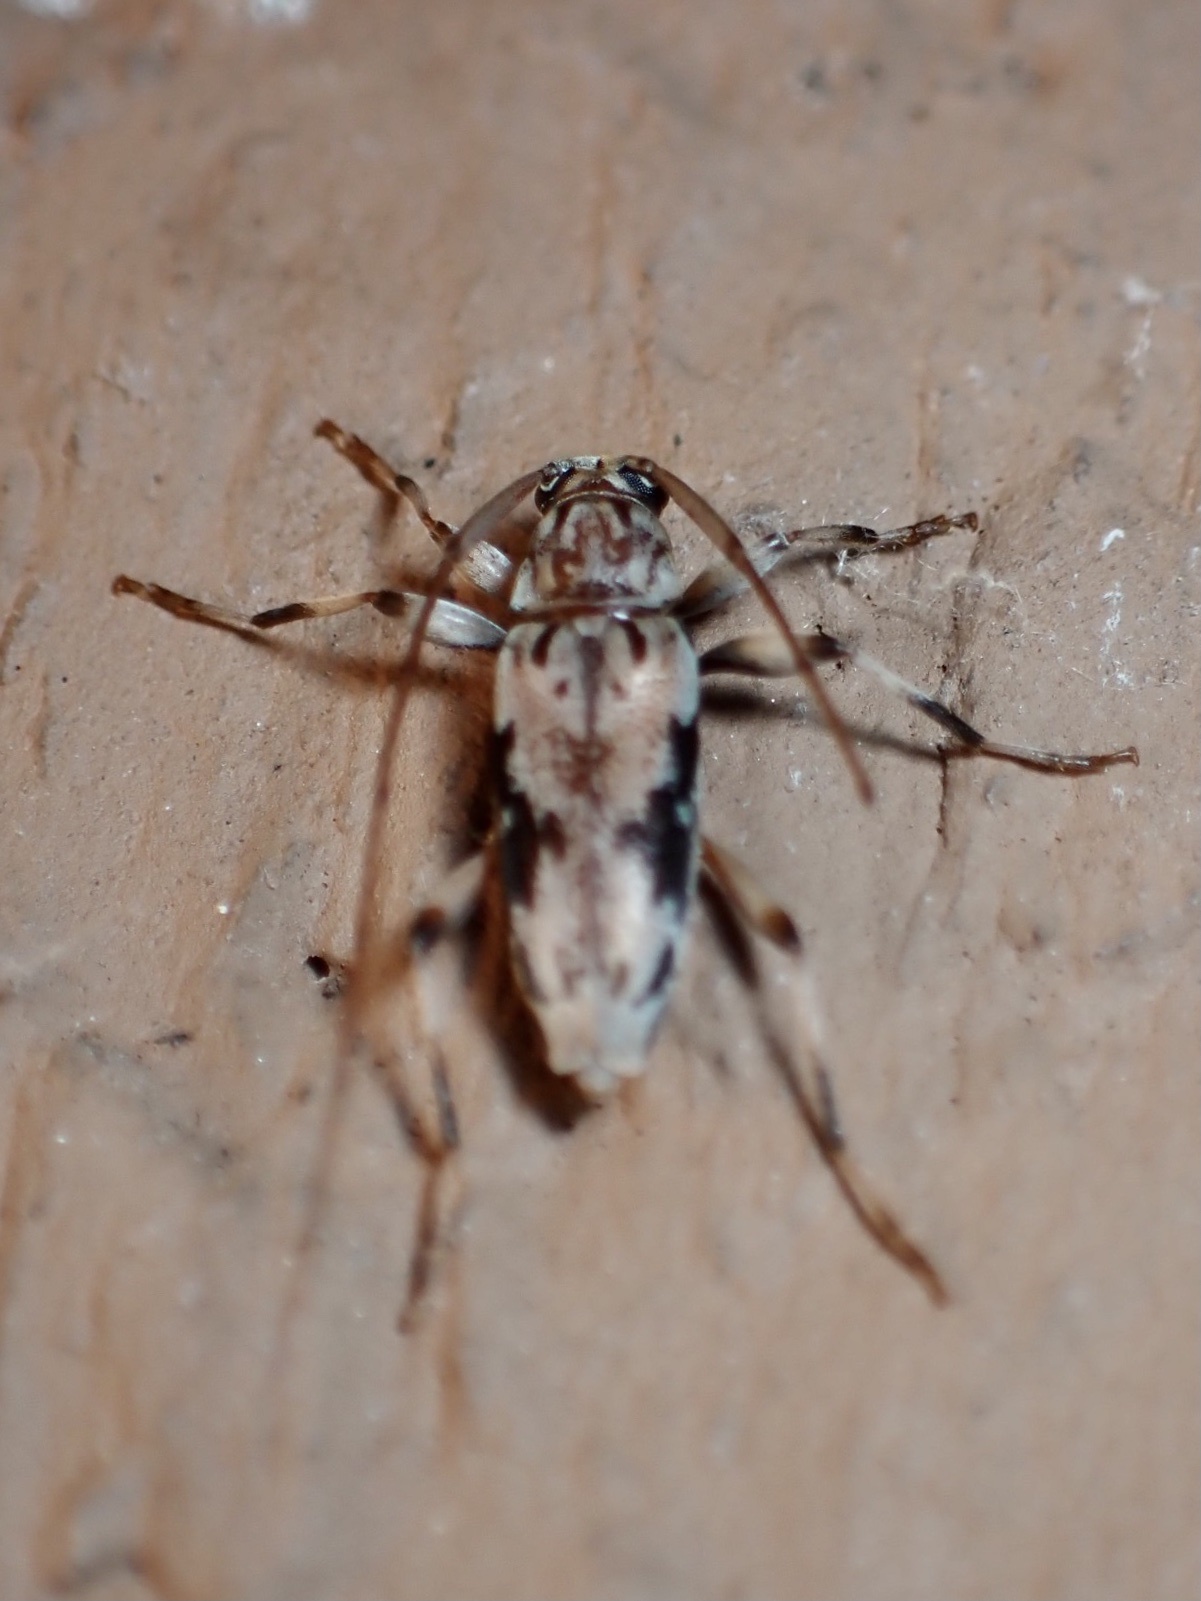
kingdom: Animalia
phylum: Arthropoda
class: Insecta
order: Coleoptera
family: Cerambycidae
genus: Lepturges
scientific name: Lepturges angulatus
